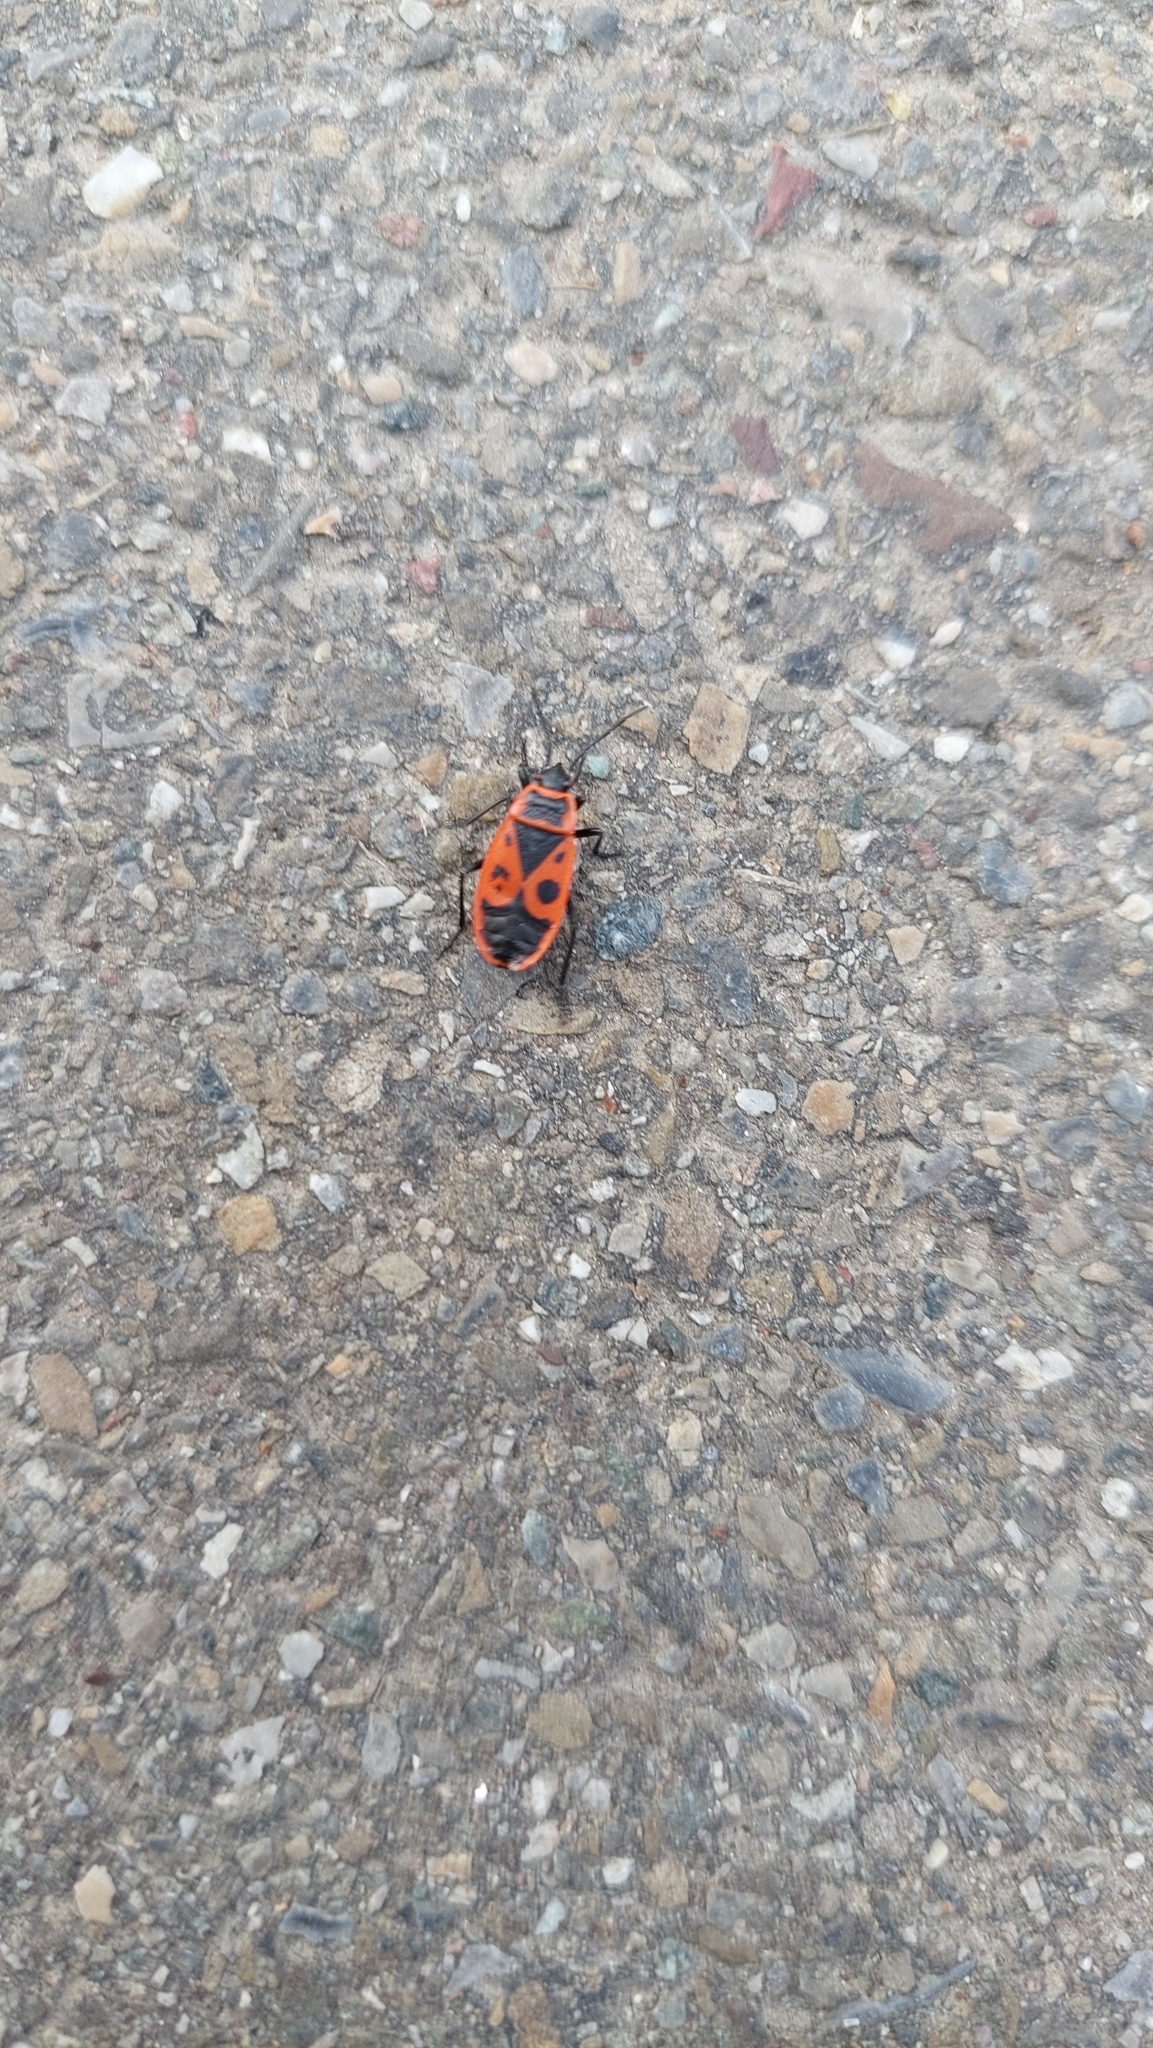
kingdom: Animalia
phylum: Arthropoda
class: Insecta
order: Hemiptera
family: Pyrrhocoridae
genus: Pyrrhocoris
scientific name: Pyrrhocoris apterus
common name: Firebug
